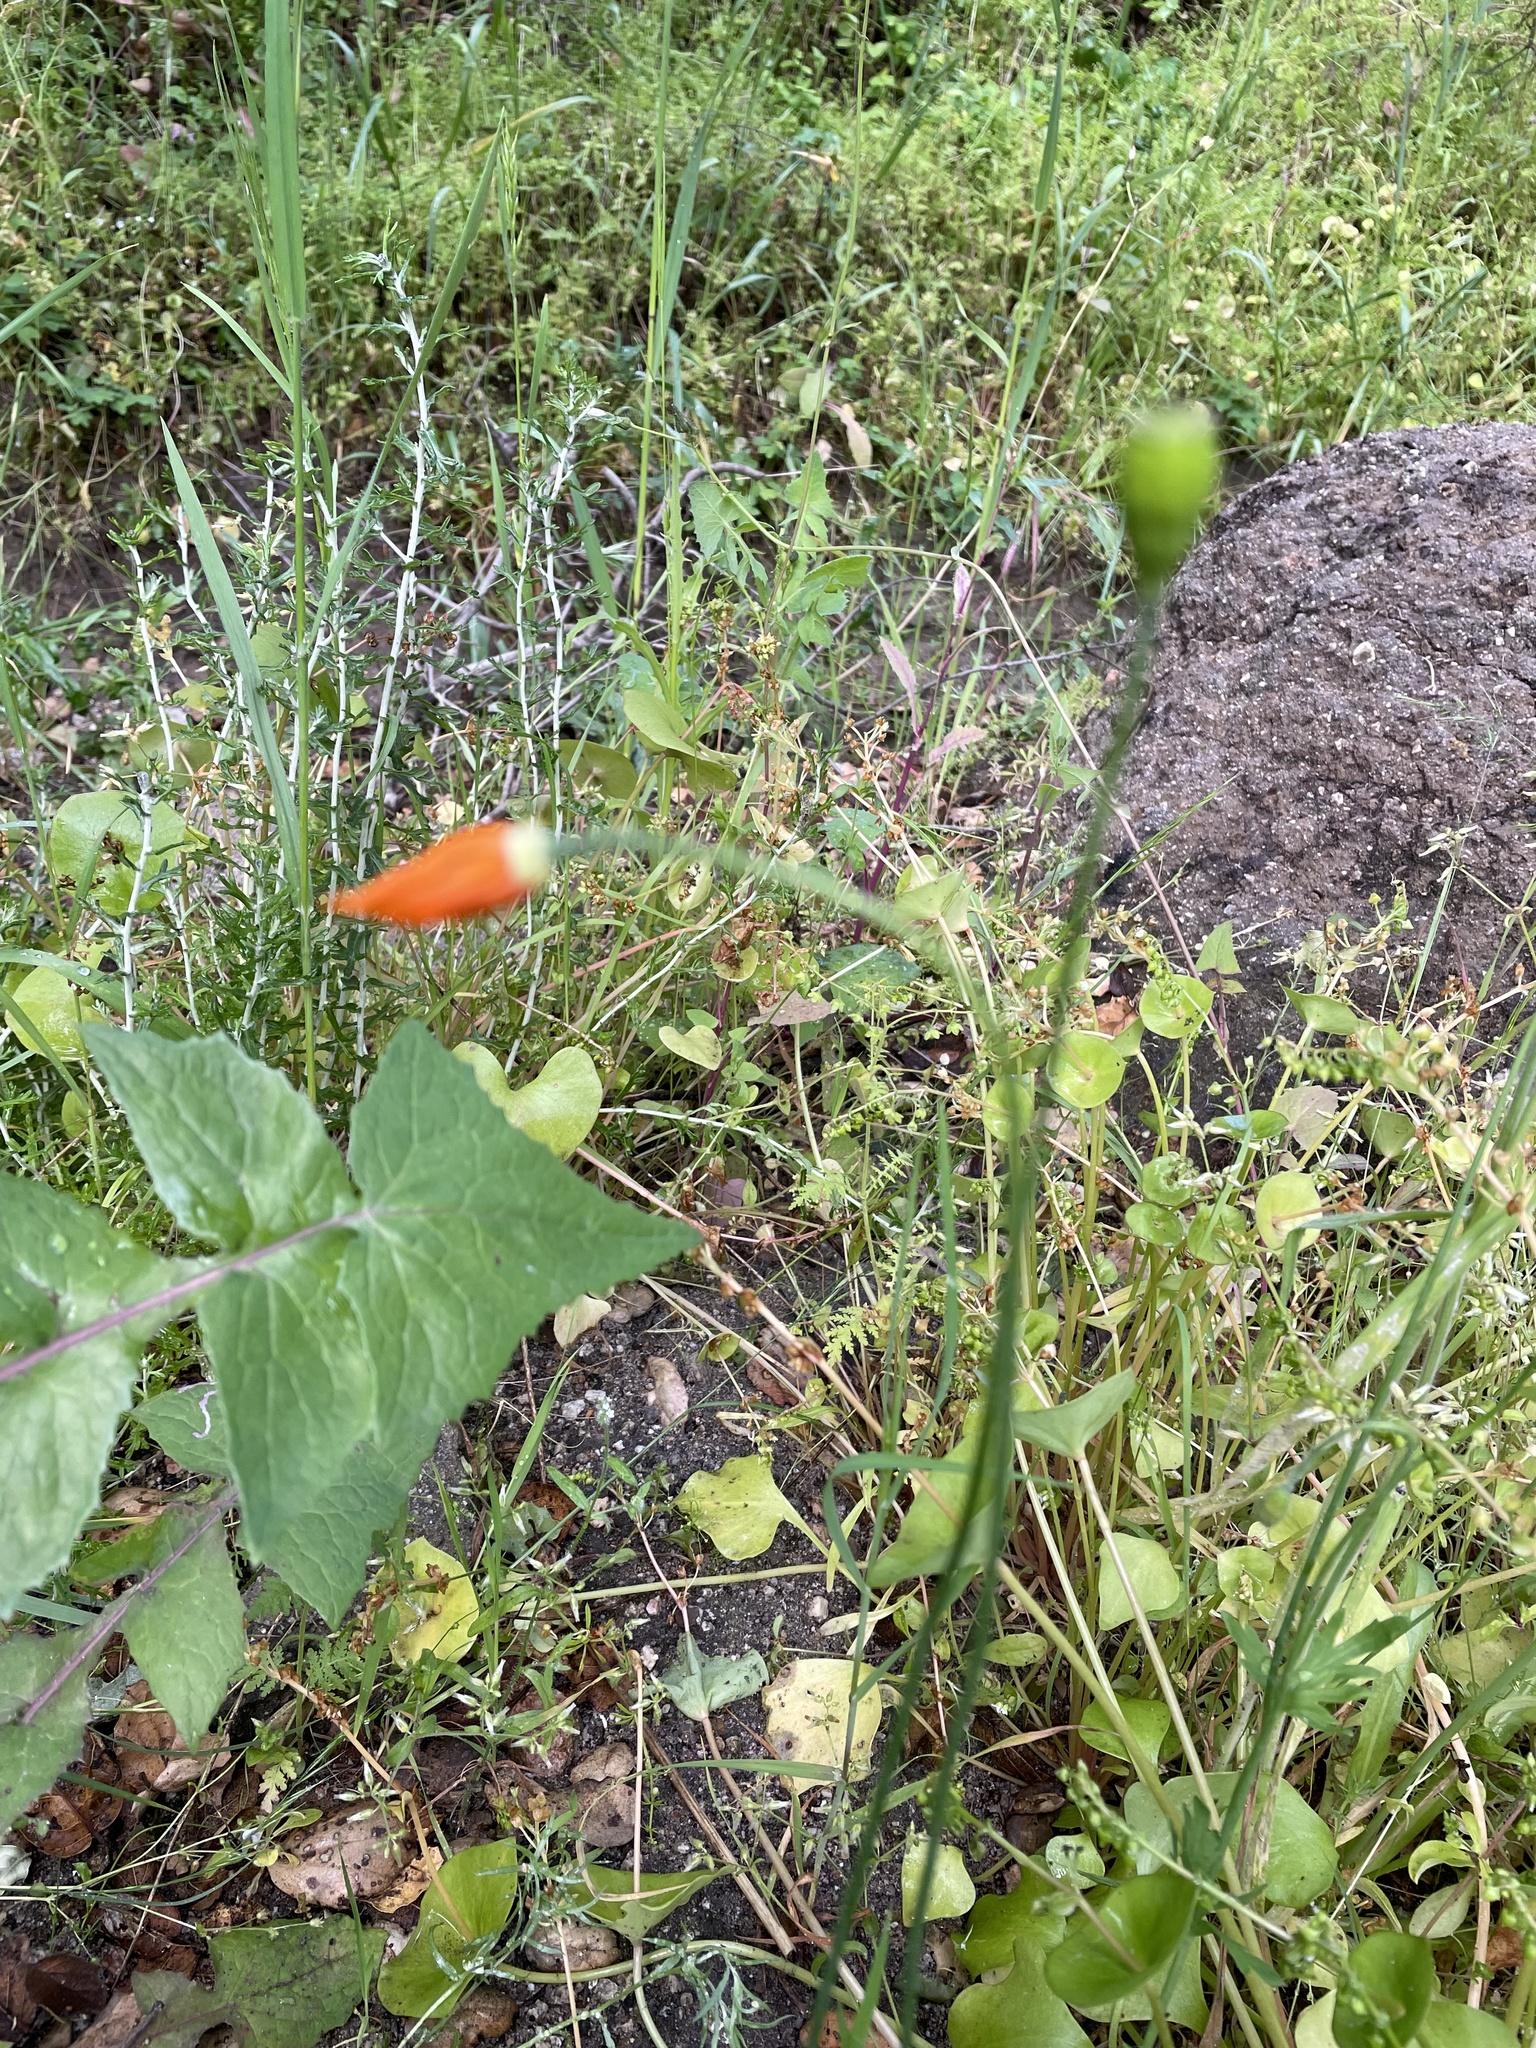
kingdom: Plantae
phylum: Tracheophyta
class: Magnoliopsida
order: Ranunculales
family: Papaveraceae
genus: Papaver
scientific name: Papaver californicum
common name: Fire poppy
